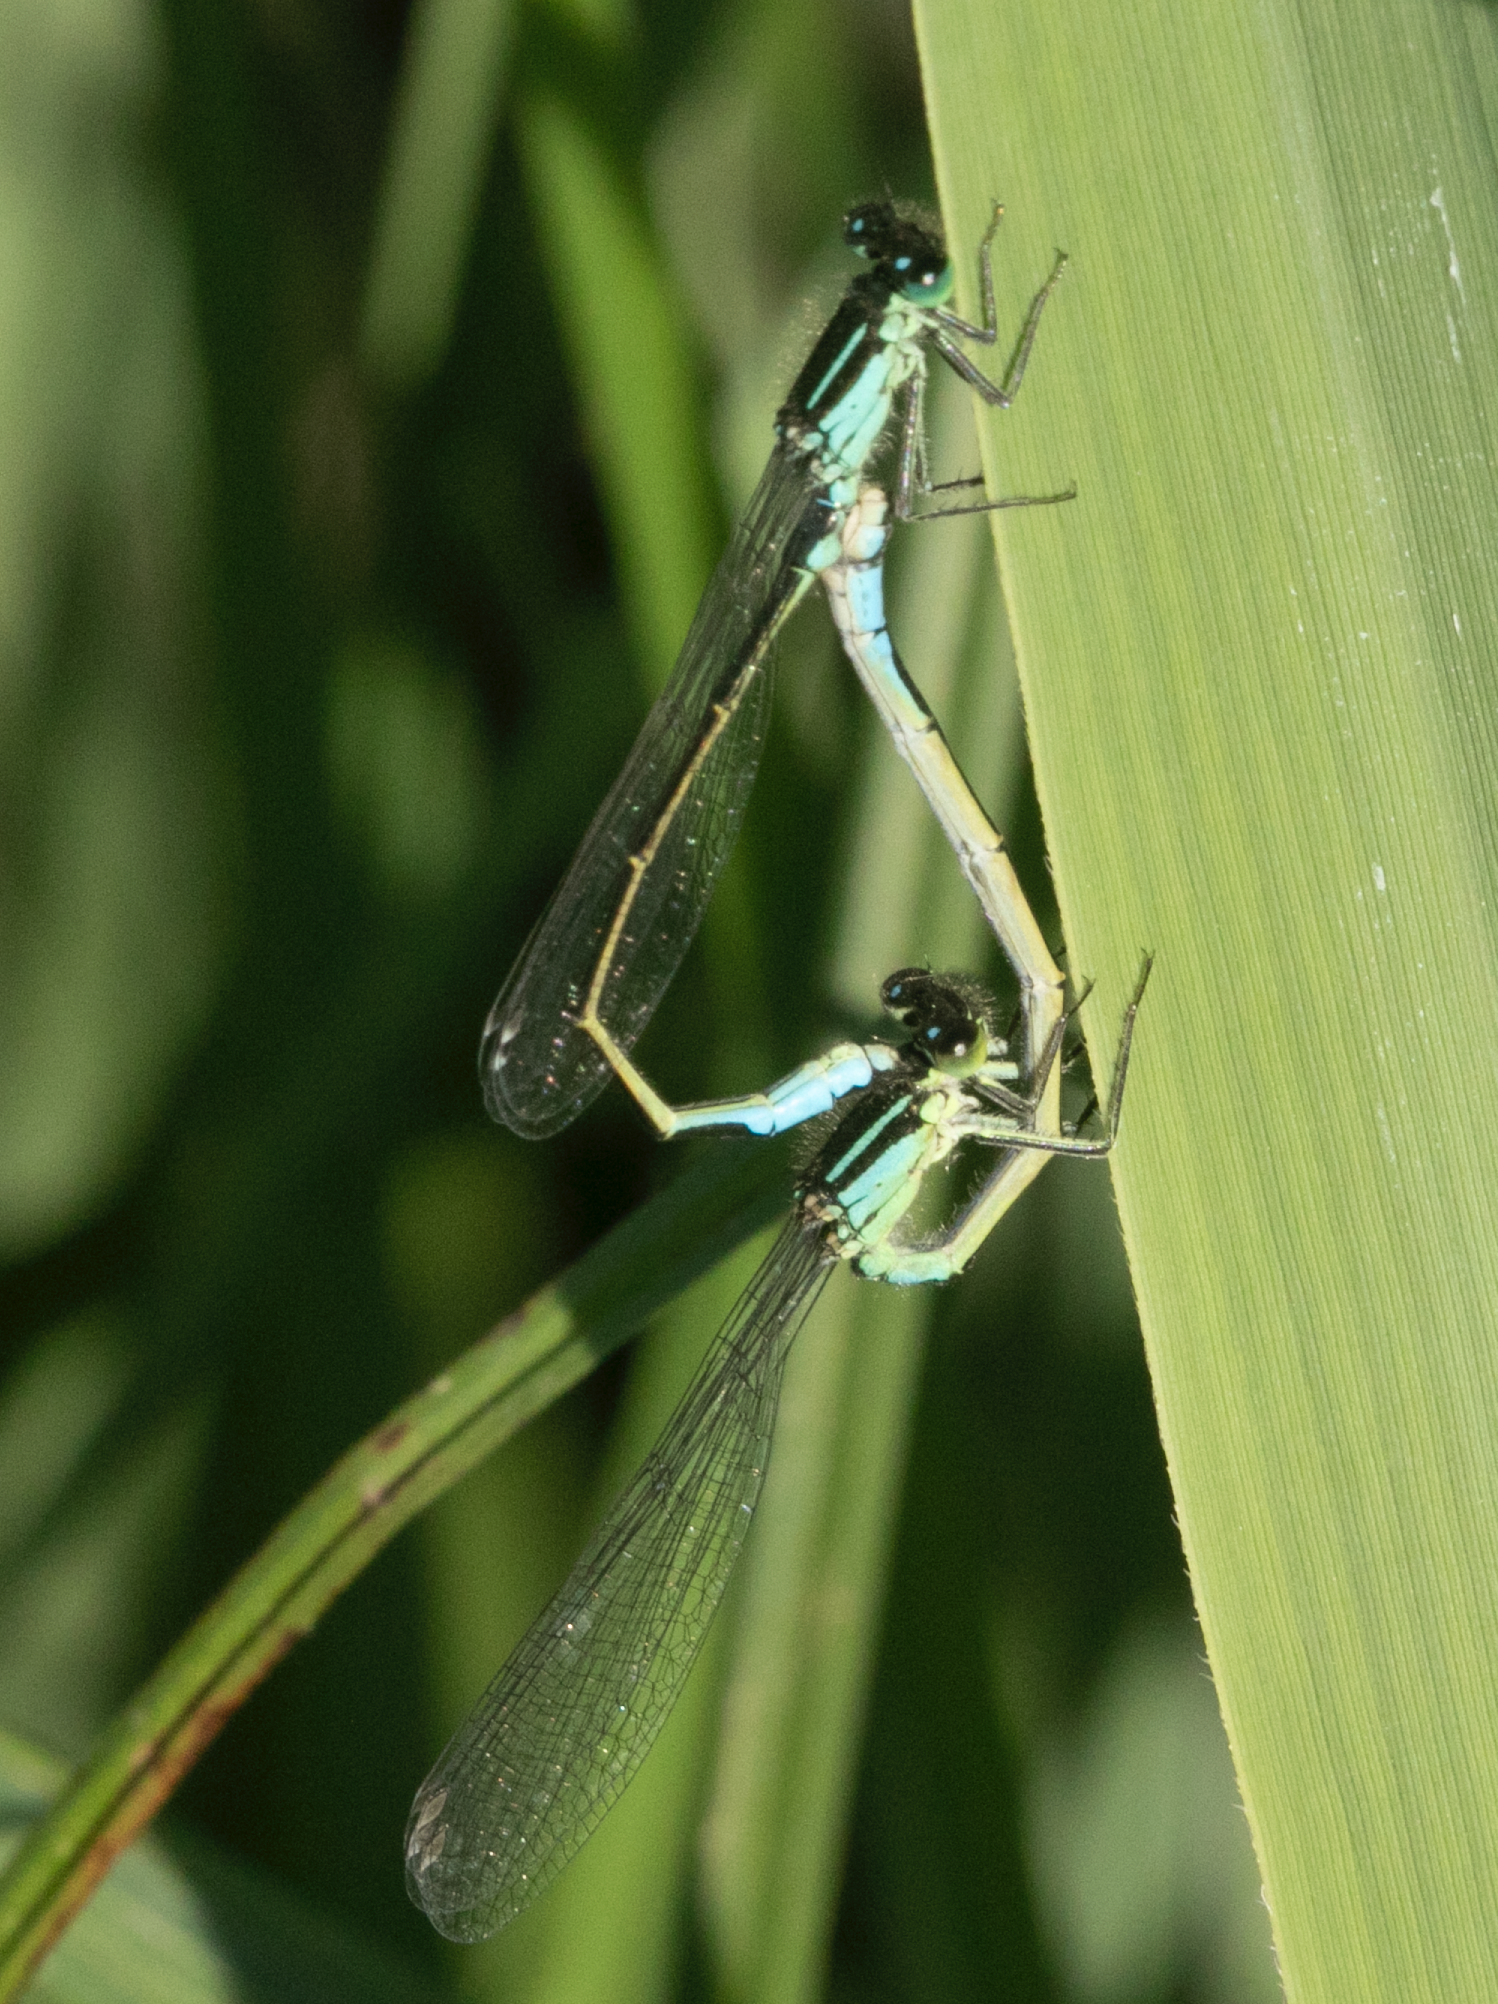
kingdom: Animalia
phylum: Arthropoda
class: Insecta
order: Odonata
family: Coenagrionidae
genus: Ischnura
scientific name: Ischnura elegans
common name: Blue-tailed damselfly
